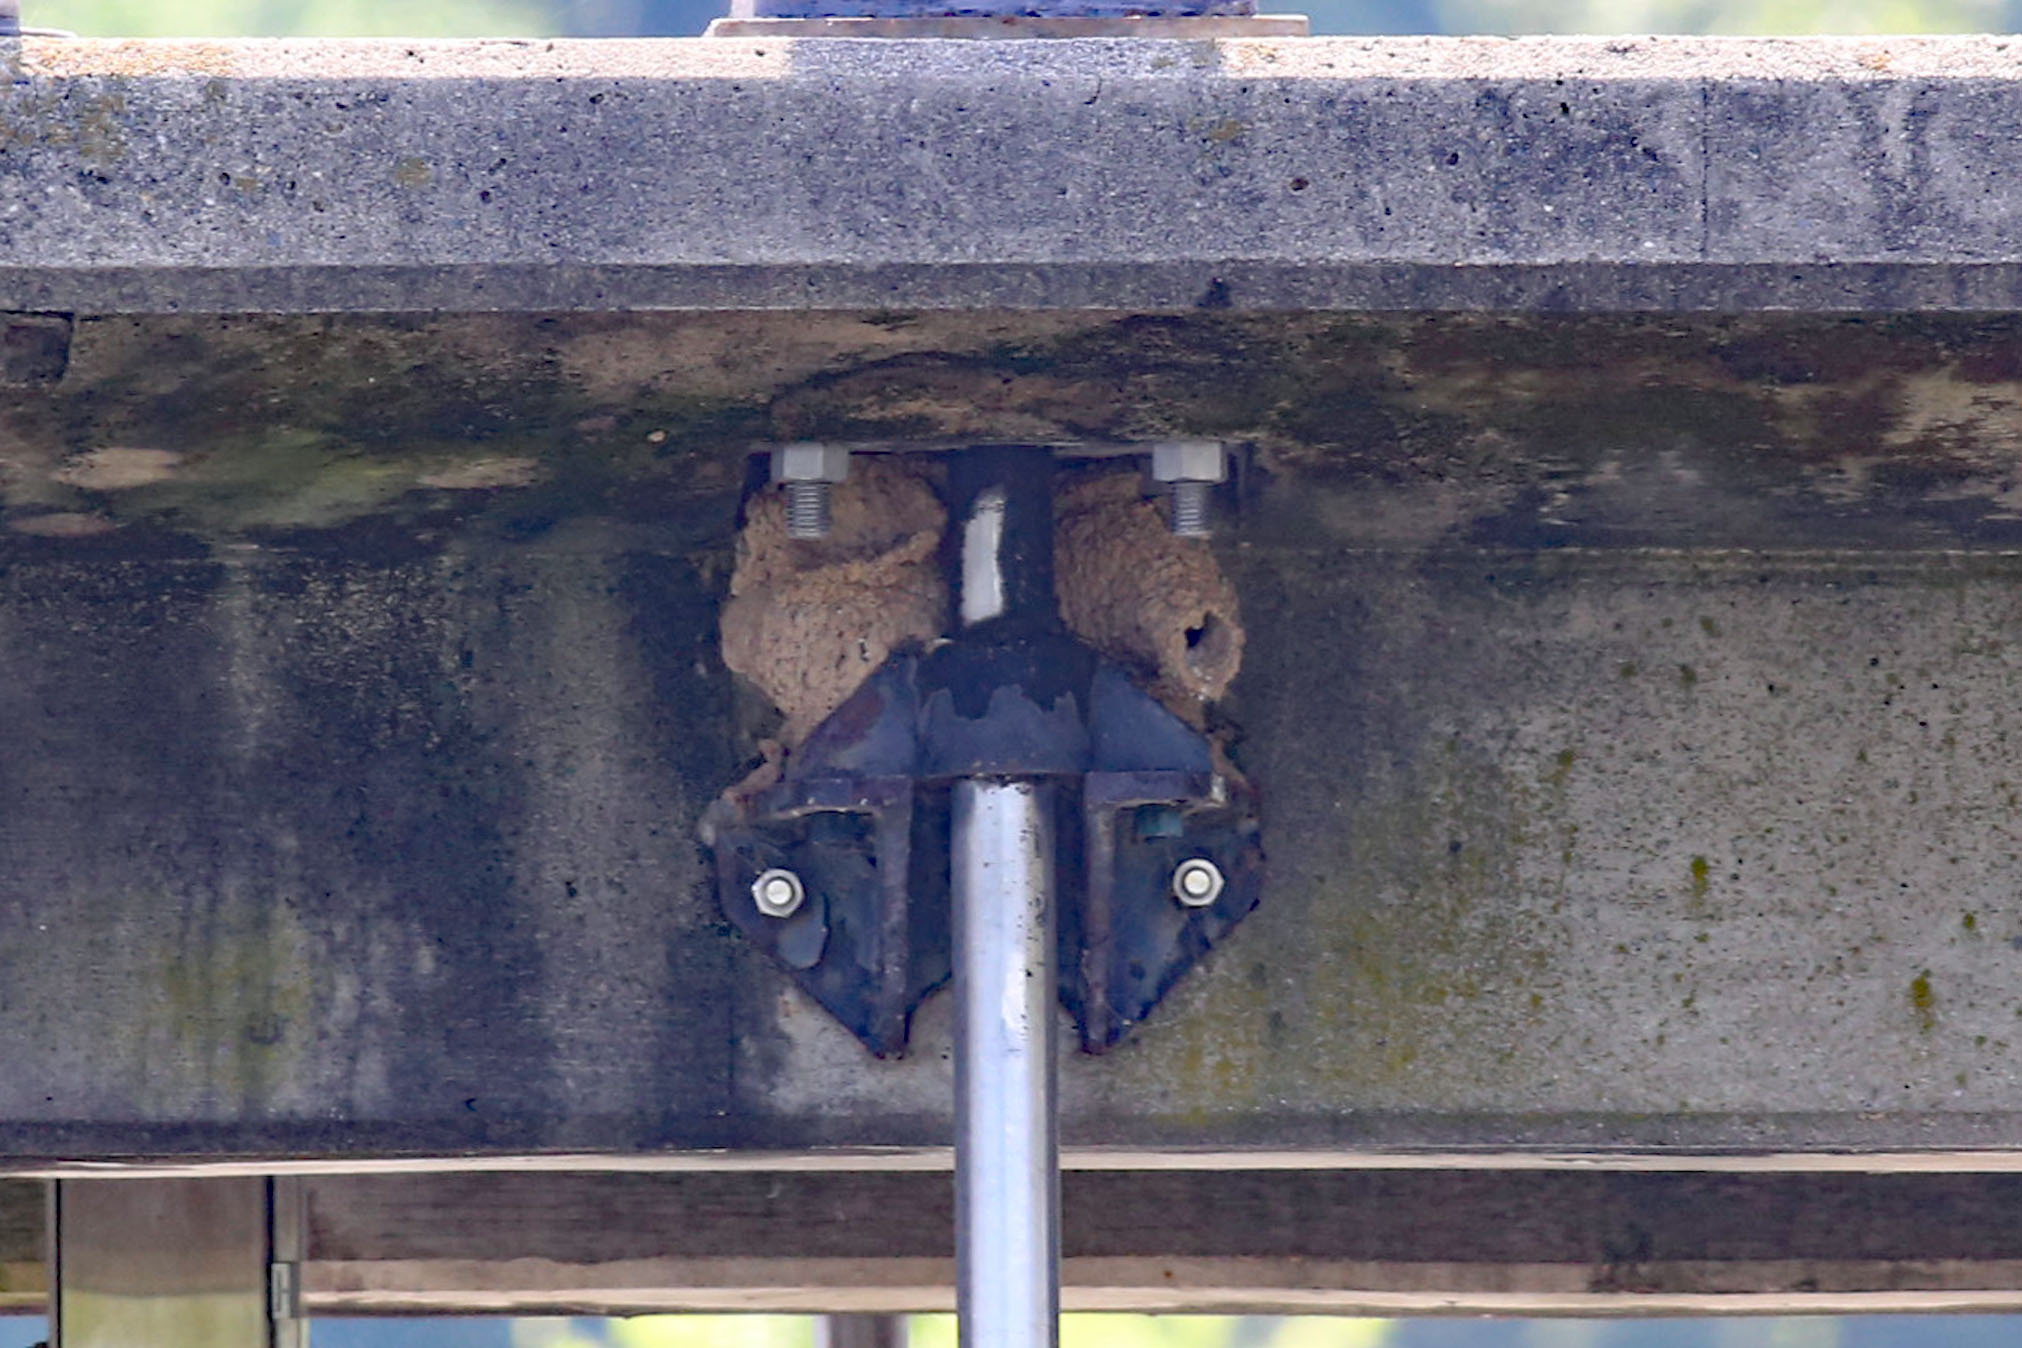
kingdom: Animalia
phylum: Chordata
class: Aves
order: Passeriformes
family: Hirundinidae
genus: Petrochelidon
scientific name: Petrochelidon pyrrhonota
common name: American cliff swallow
